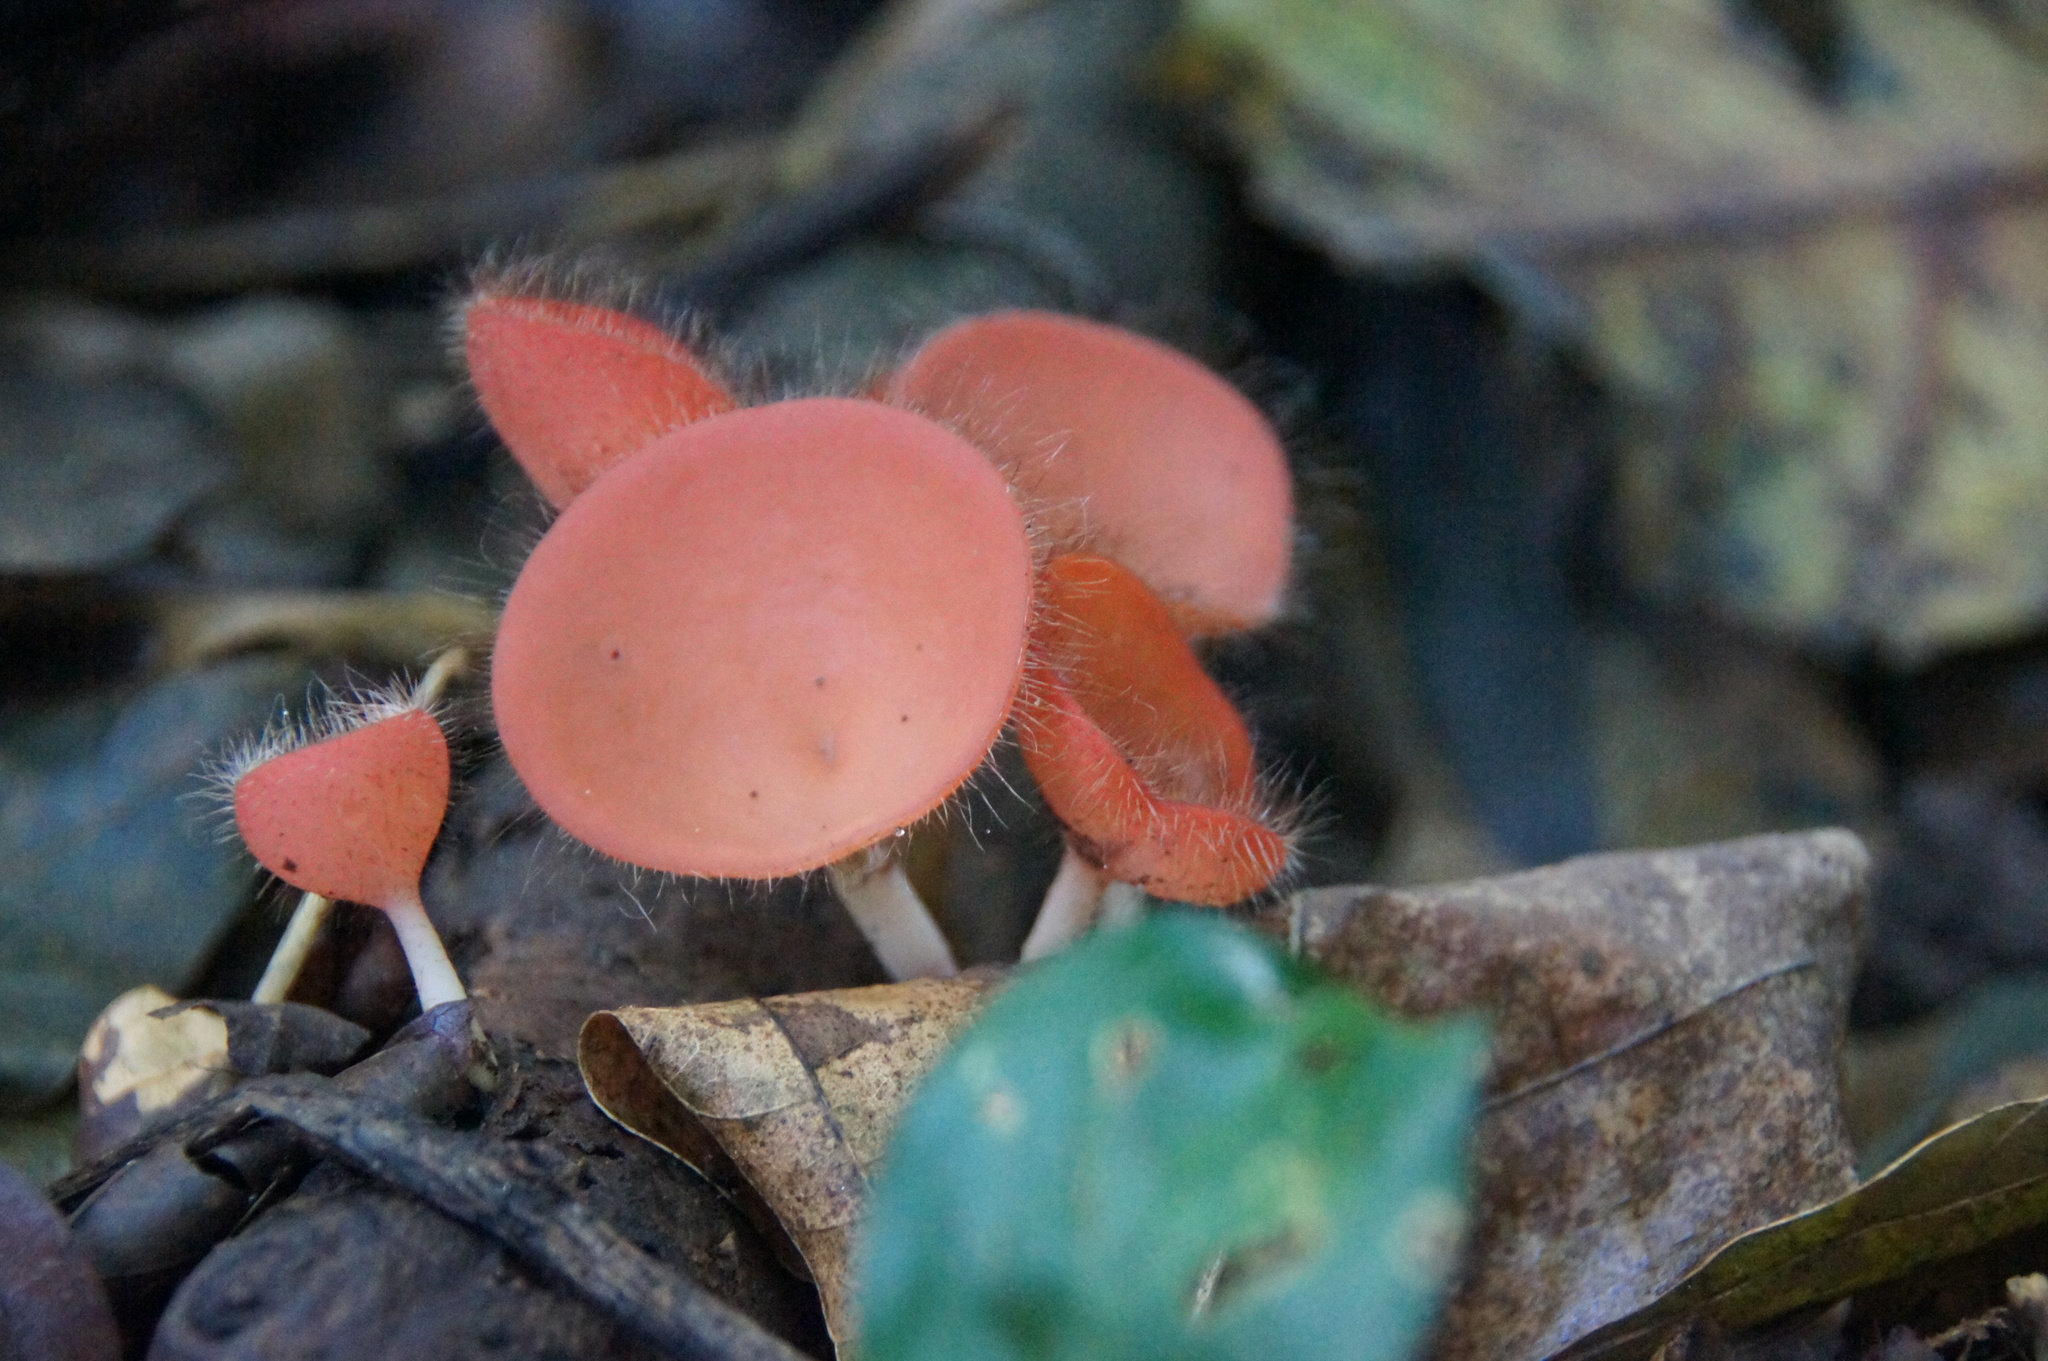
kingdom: Fungi
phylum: Ascomycota
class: Pezizomycetes
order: Pezizales
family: Sarcoscyphaceae
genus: Cookeina
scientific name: Cookeina tricholoma
